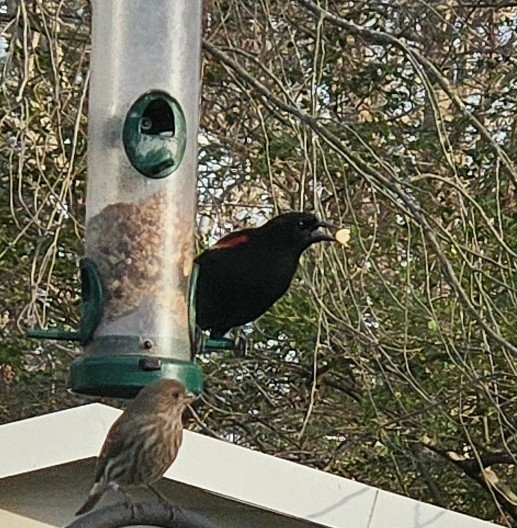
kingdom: Animalia
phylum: Chordata
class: Aves
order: Passeriformes
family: Icteridae
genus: Agelaius
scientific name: Agelaius phoeniceus
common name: Red-winged blackbird
